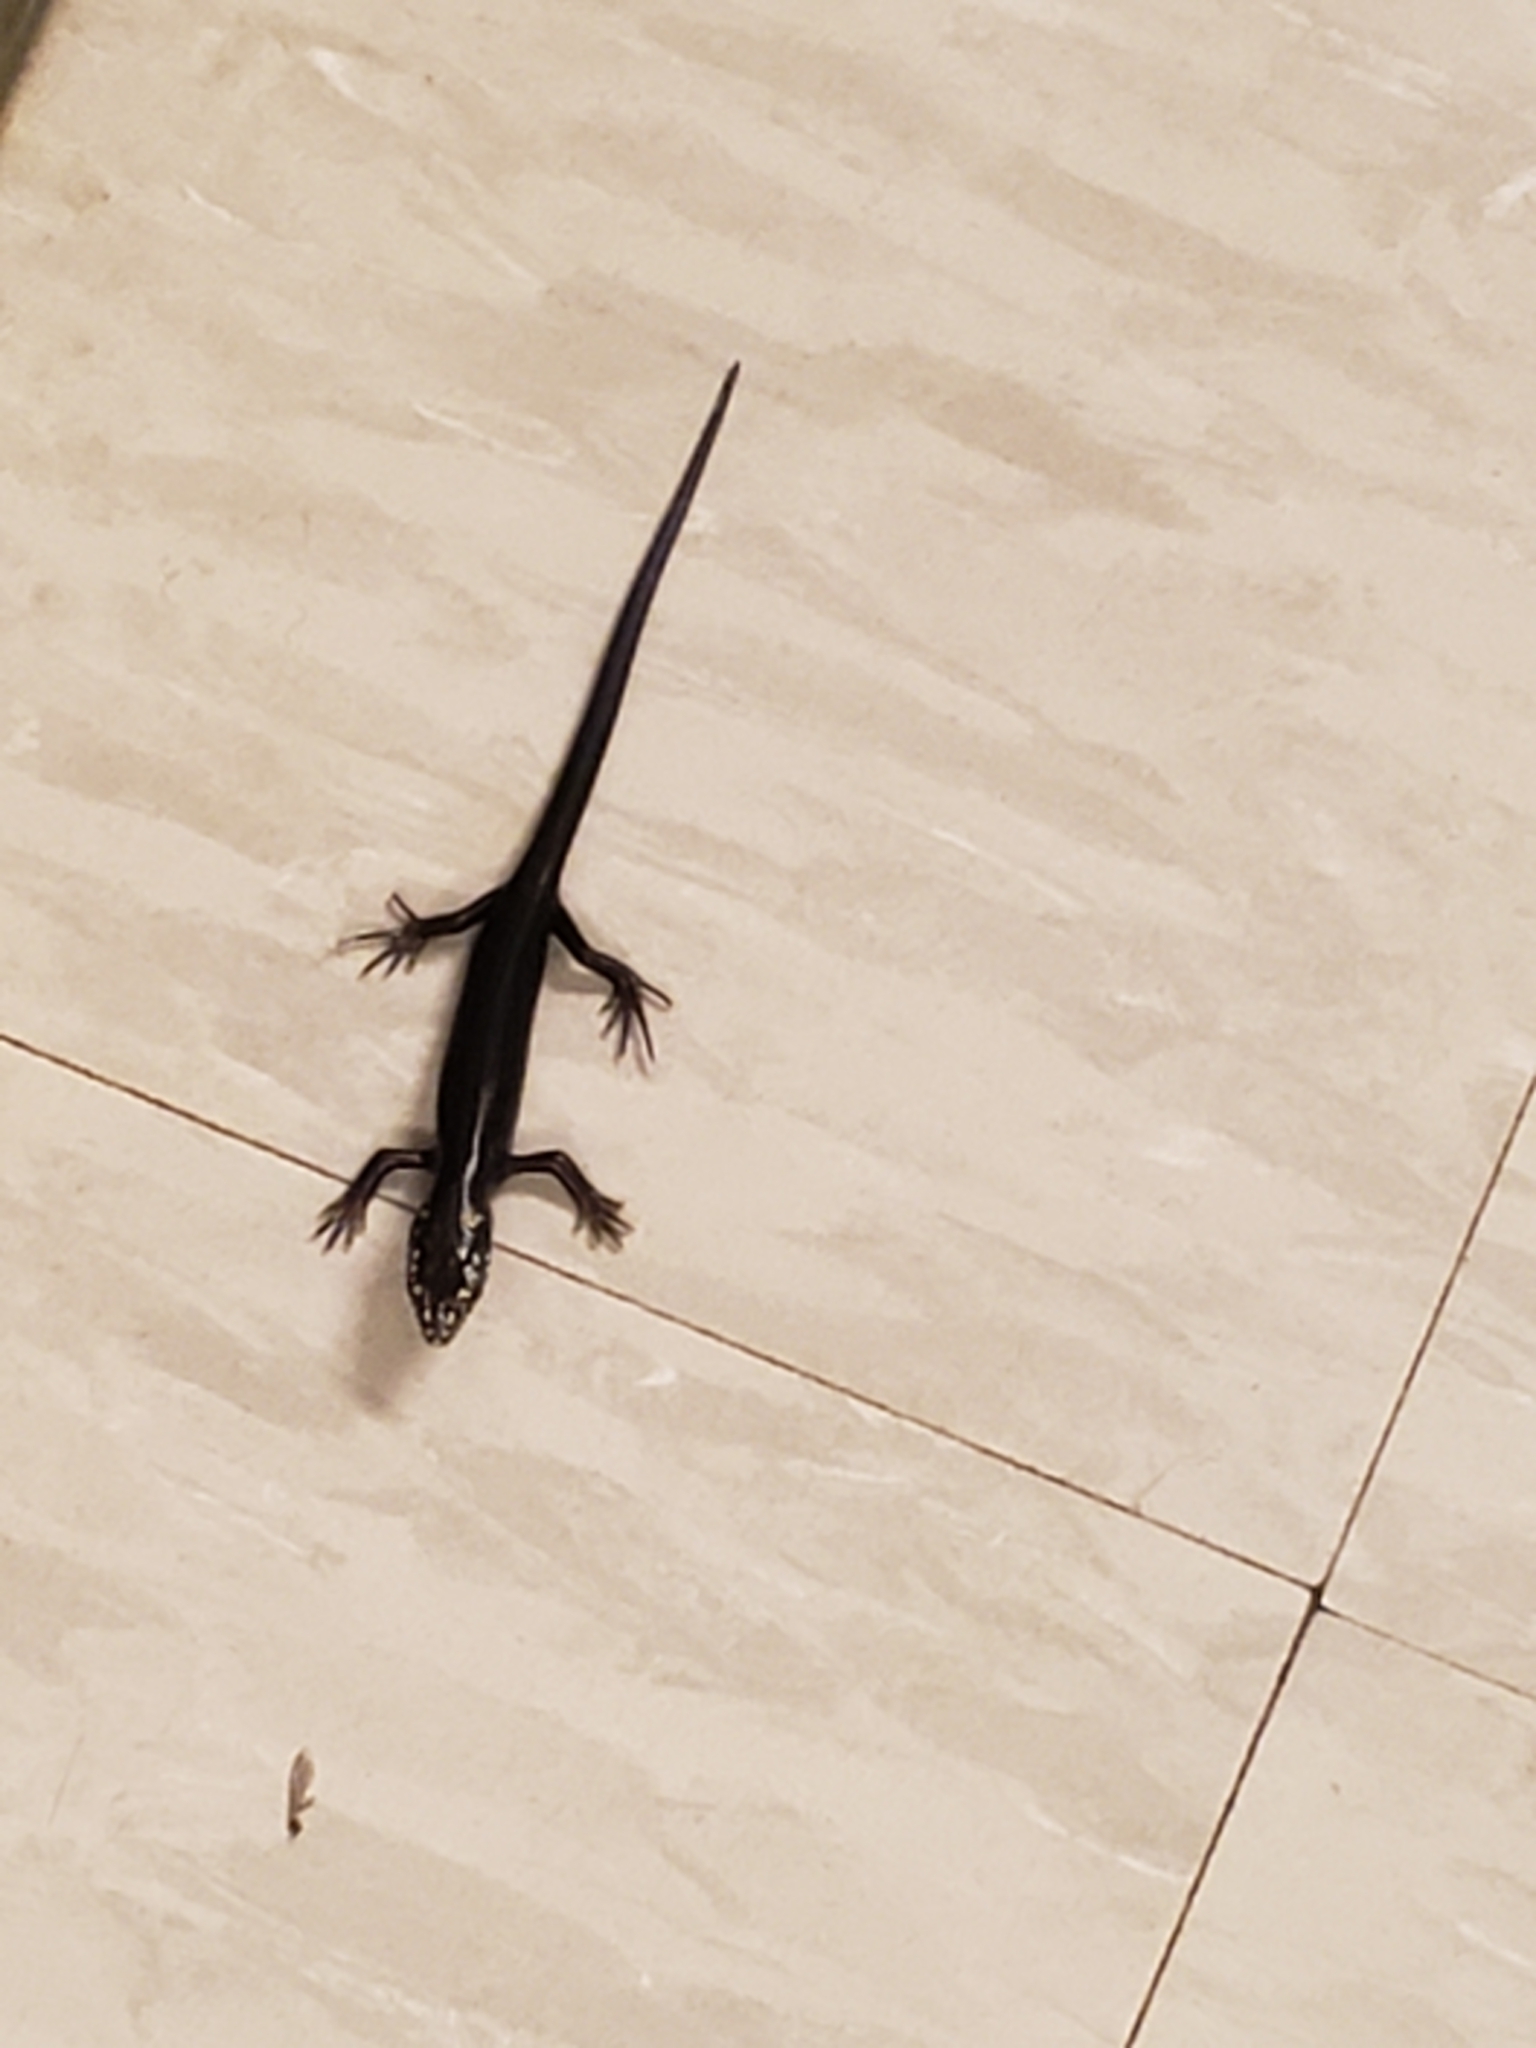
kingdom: Animalia
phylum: Chordata
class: Squamata
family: Scincidae
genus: Plestiodon
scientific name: Plestiodon obsoletus
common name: Great plains skink
